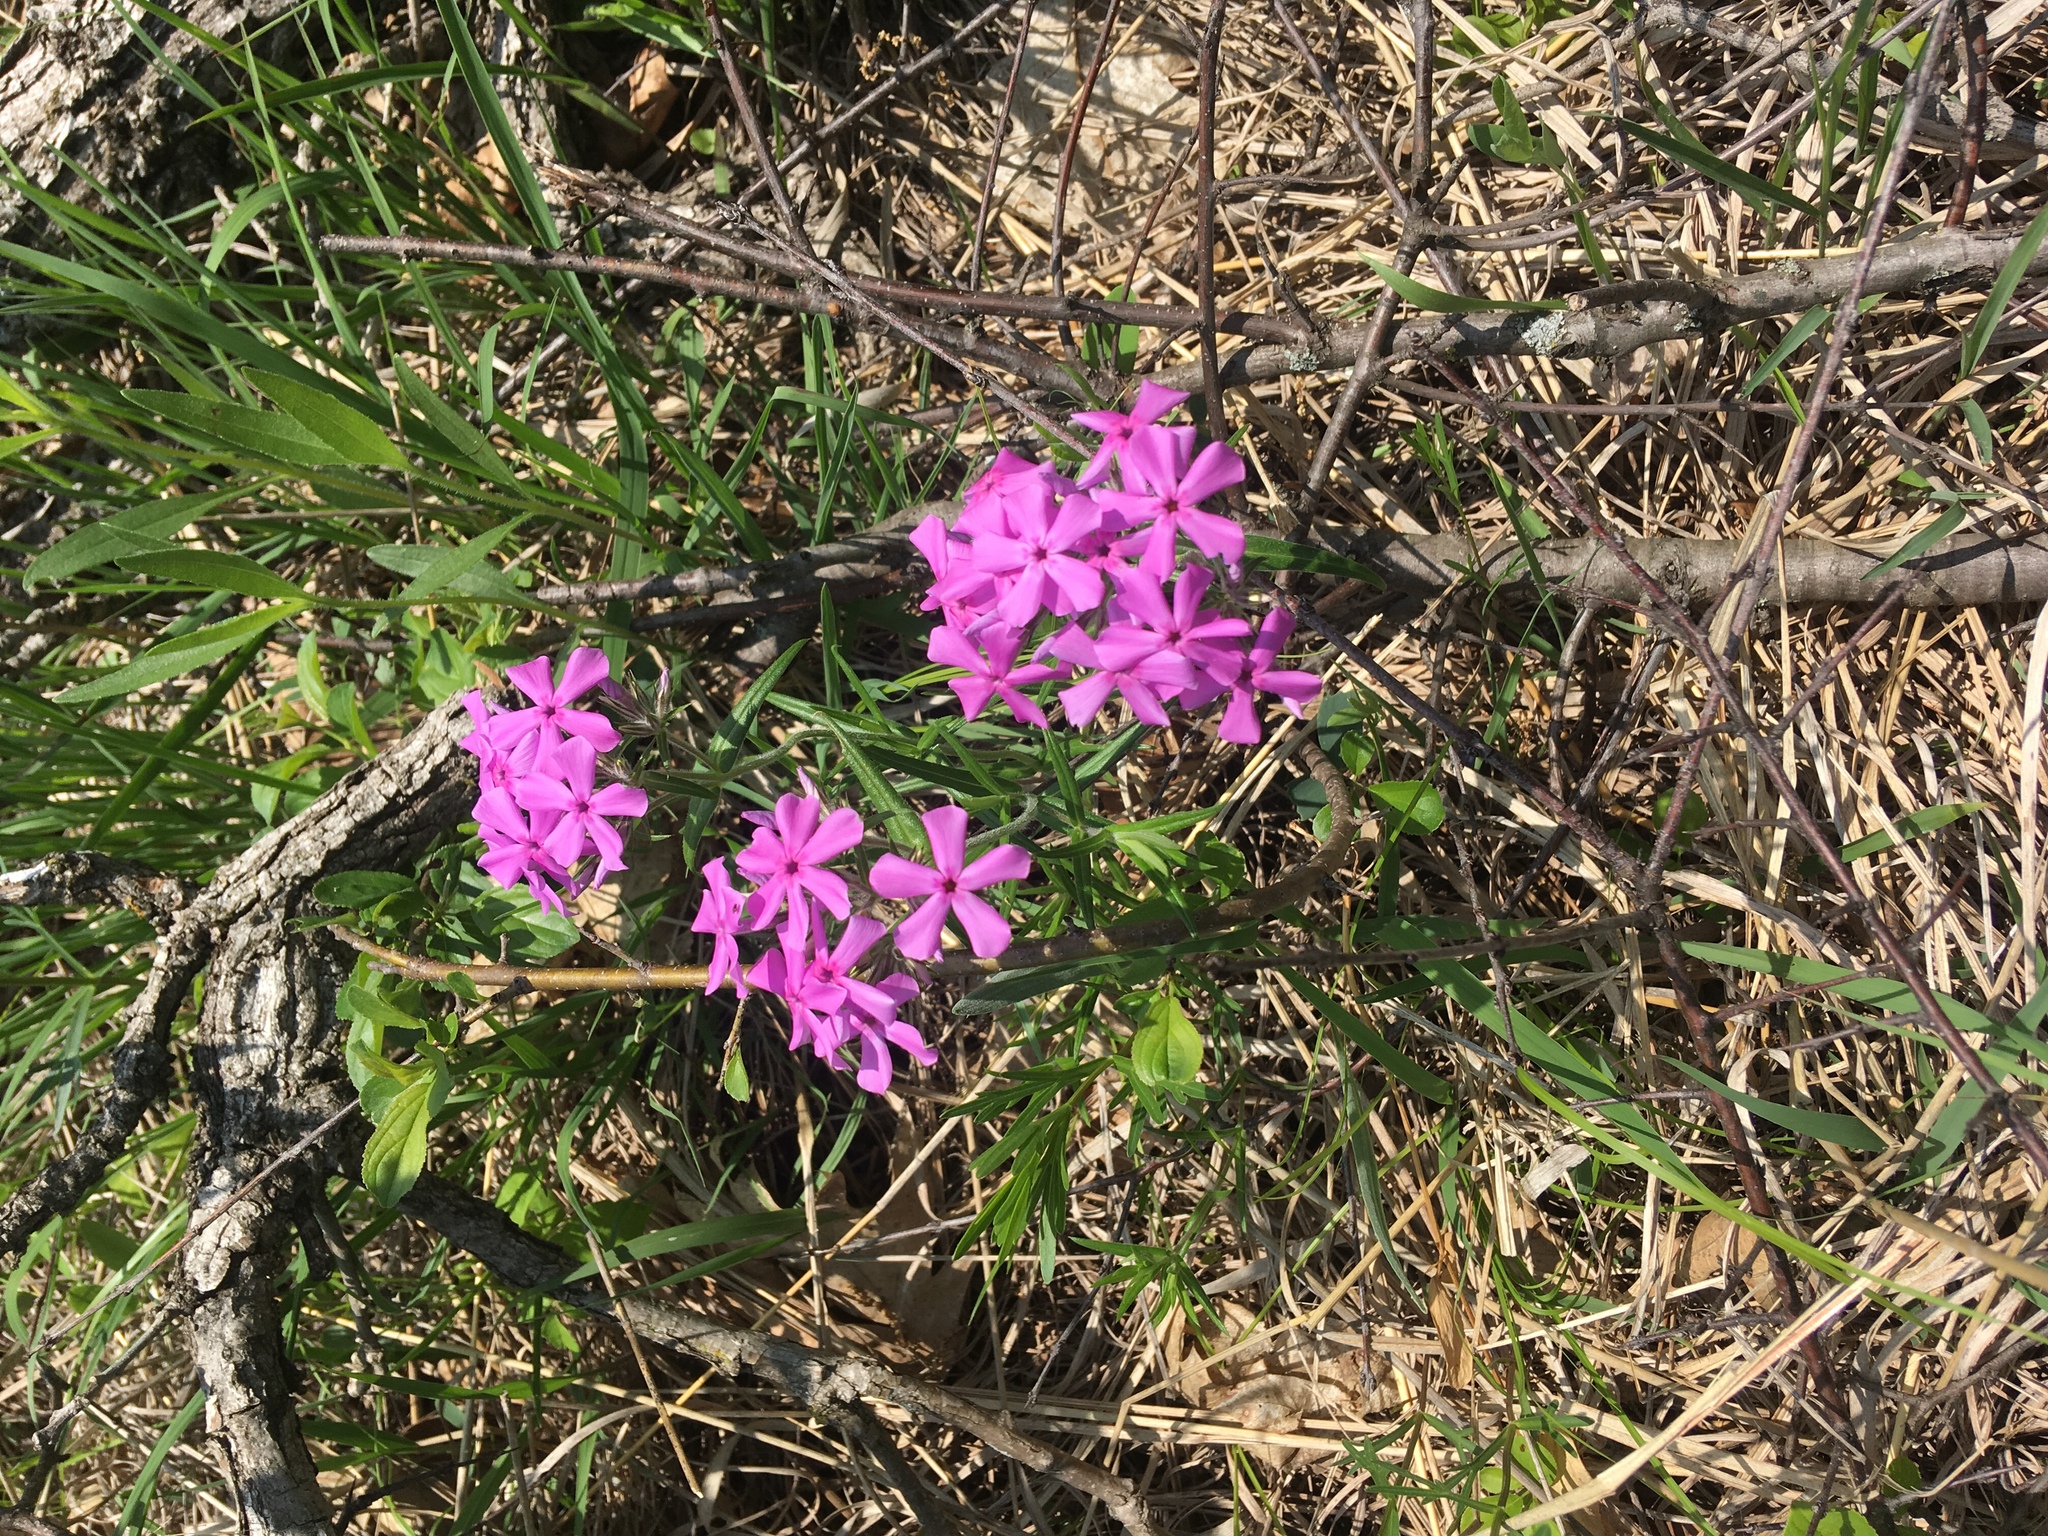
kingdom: Plantae
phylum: Tracheophyta
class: Magnoliopsida
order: Ericales
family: Polemoniaceae
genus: Phlox
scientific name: Phlox pilosa
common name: Prairie phlox
